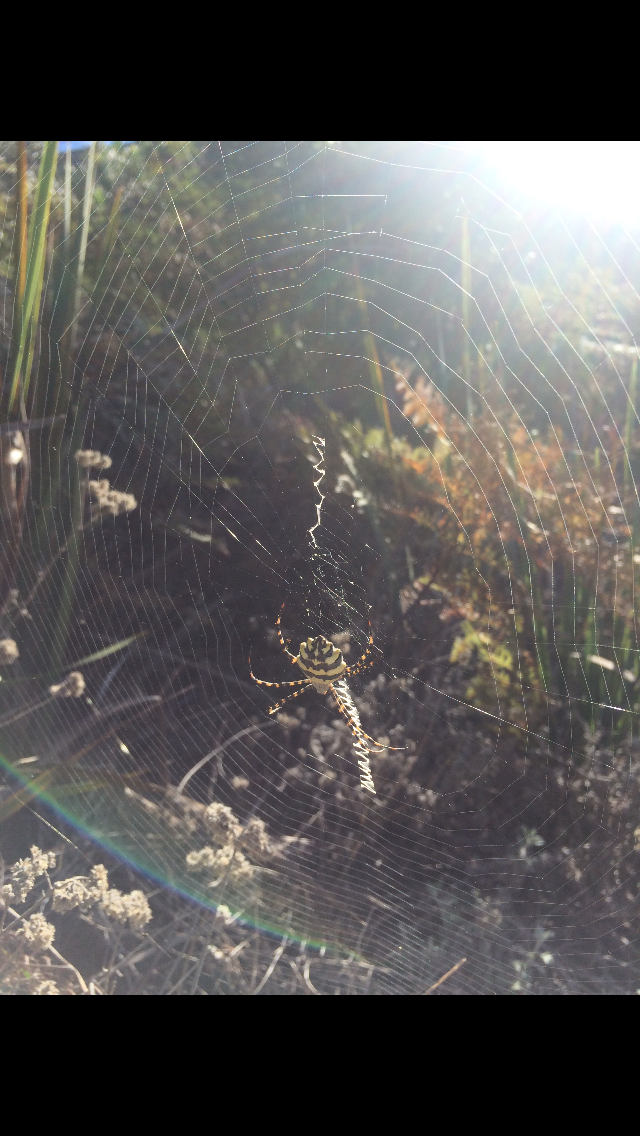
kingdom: Animalia
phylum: Arthropoda
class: Arachnida
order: Araneae
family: Araneidae
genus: Argiope
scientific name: Argiope australis
